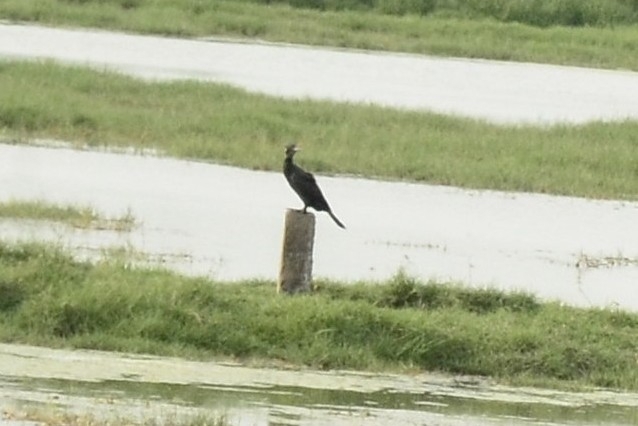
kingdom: Animalia
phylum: Chordata
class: Aves
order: Suliformes
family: Phalacrocoracidae
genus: Microcarbo
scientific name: Microcarbo niger
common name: Little cormorant
